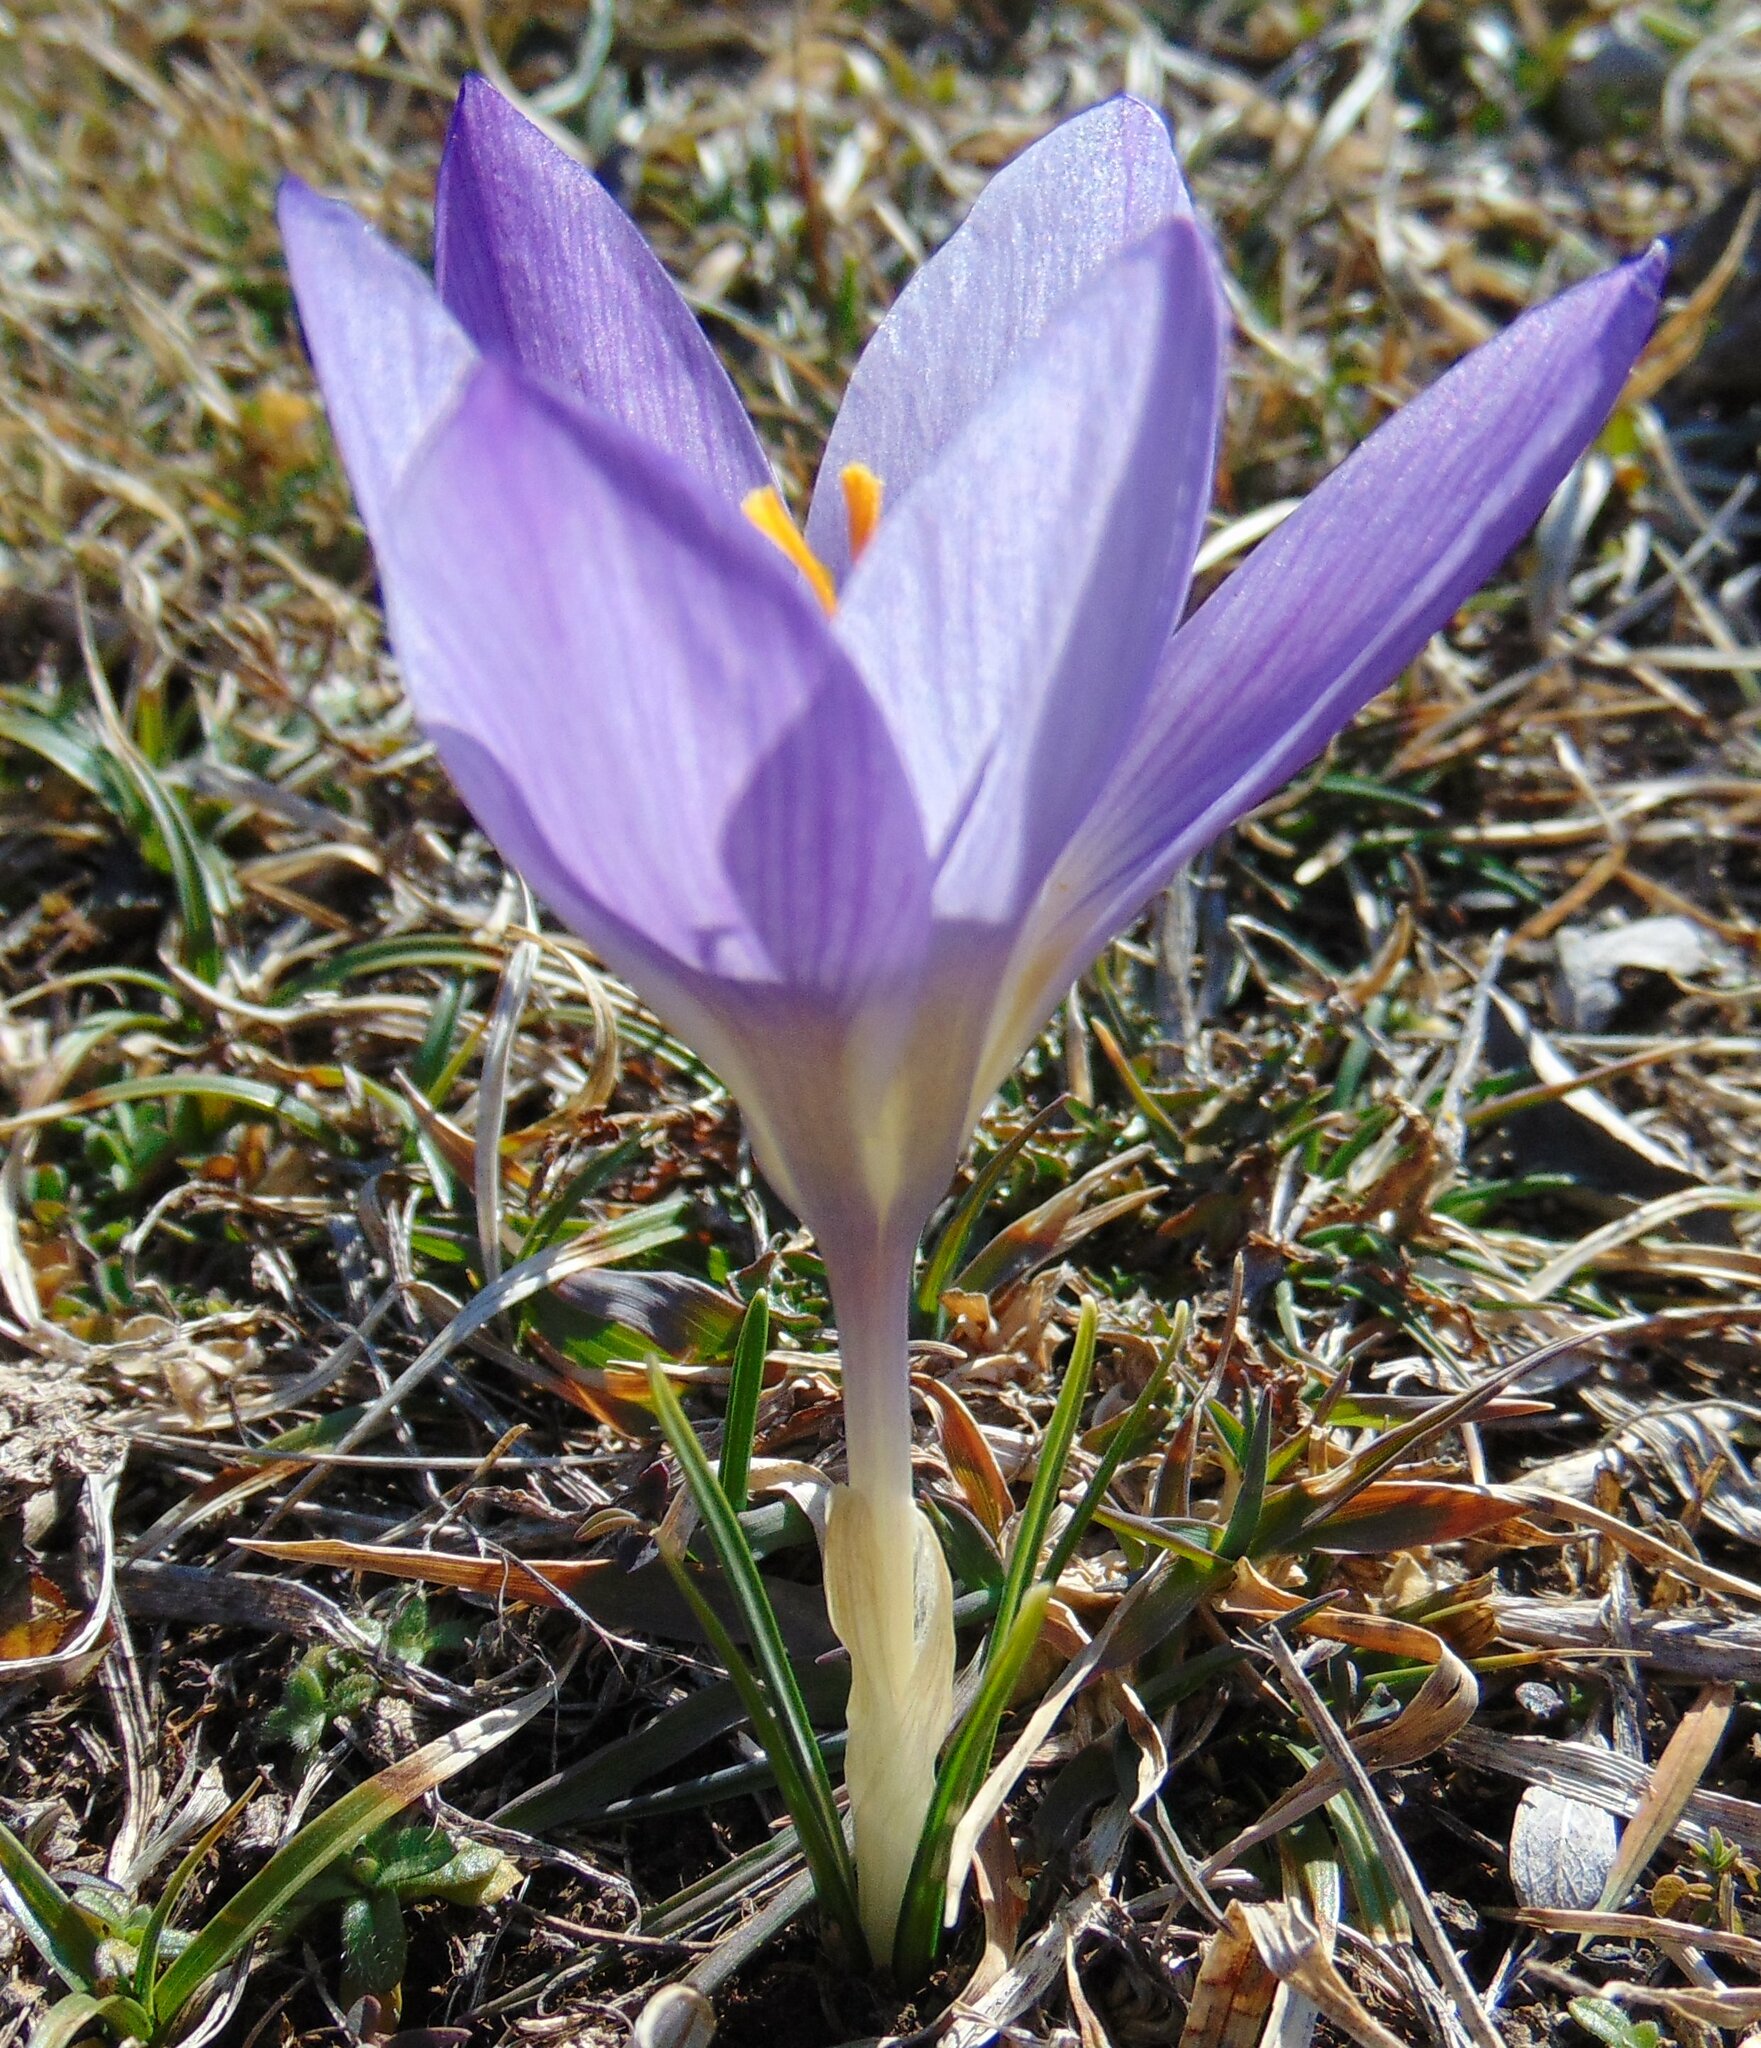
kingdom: Plantae
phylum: Tracheophyta
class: Liliopsida
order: Asparagales
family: Iridaceae
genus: Crocus
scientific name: Crocus dalmaticus
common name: Dalmatian saffron
